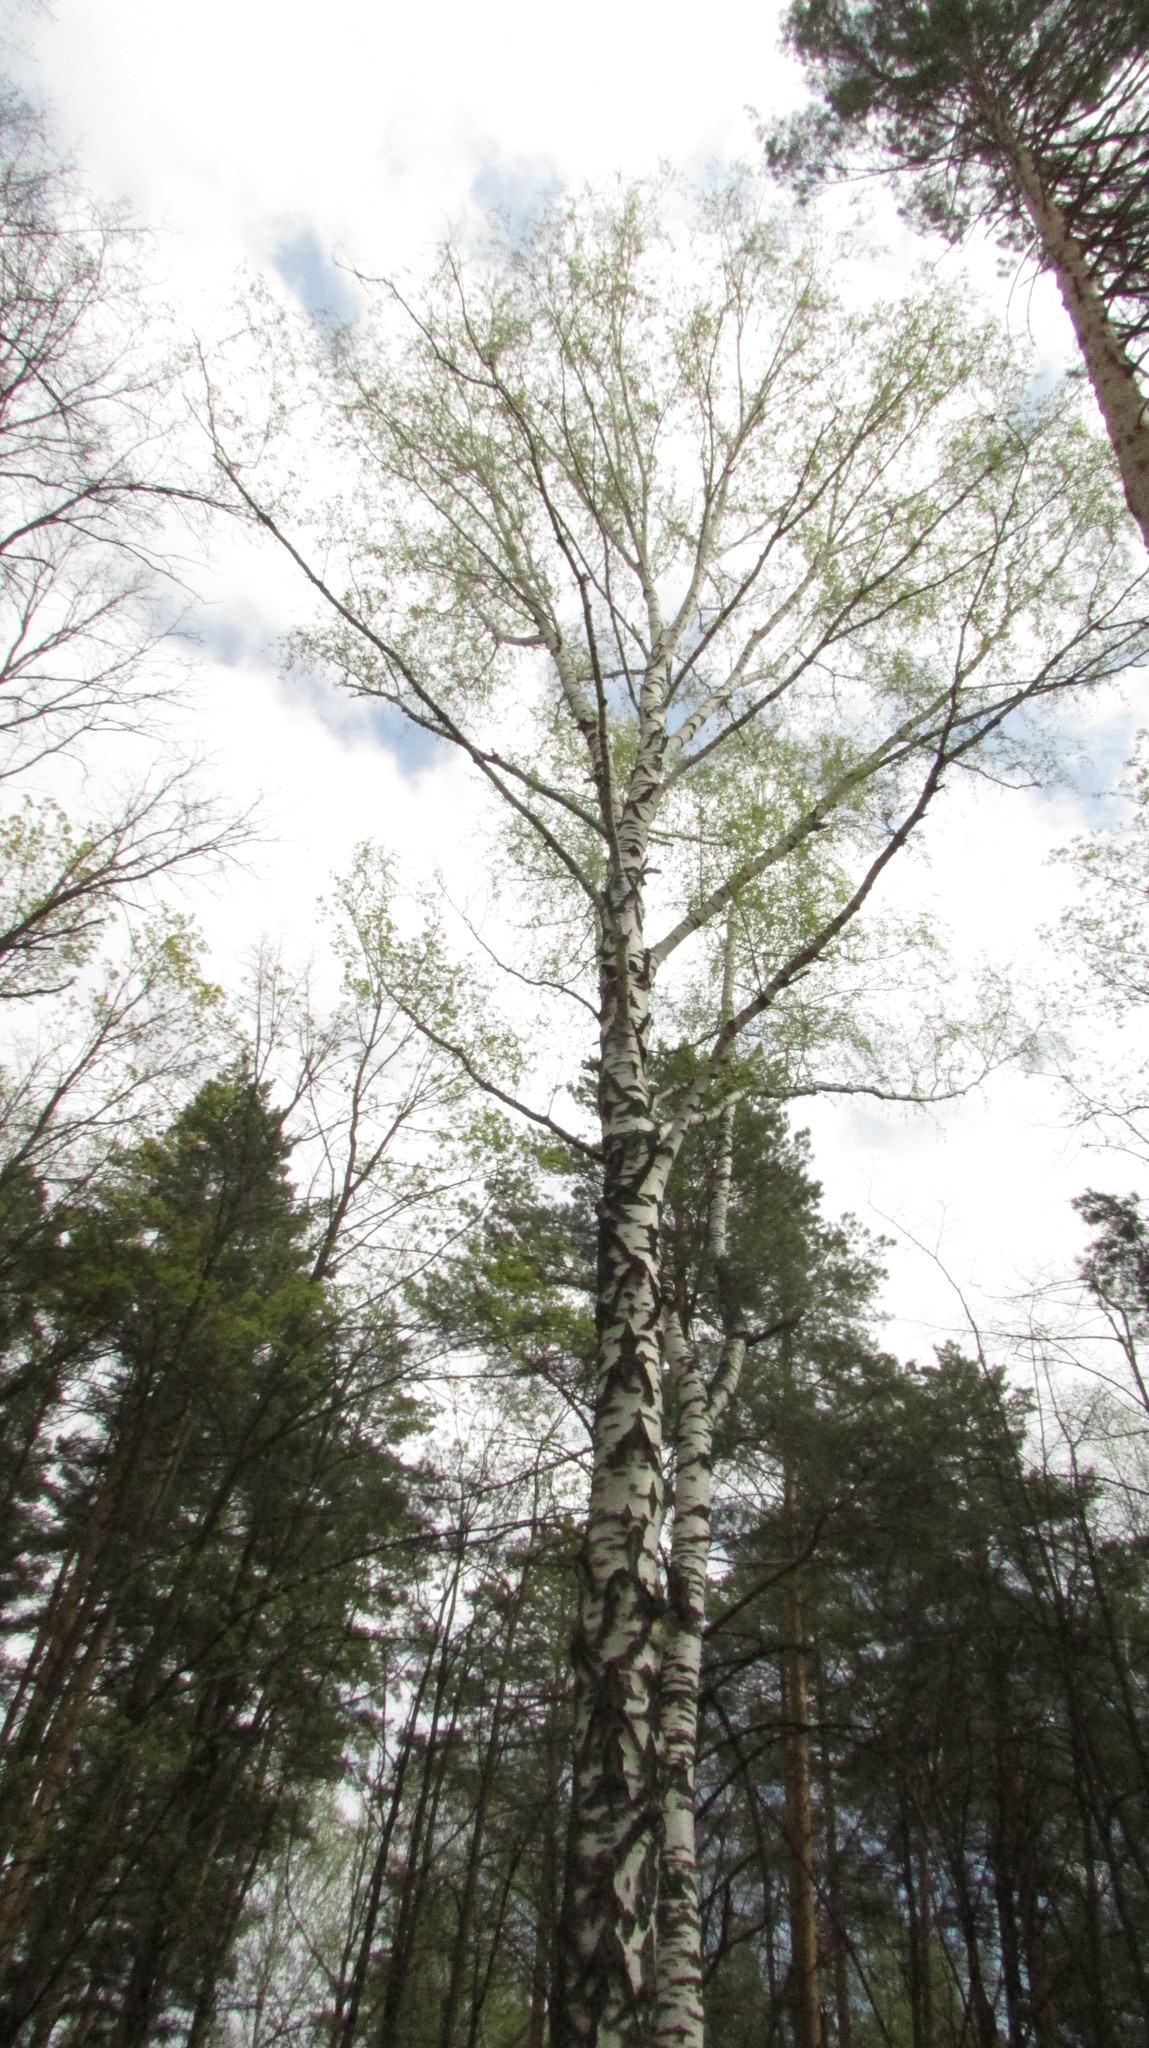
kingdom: Plantae
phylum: Tracheophyta
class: Magnoliopsida
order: Fagales
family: Betulaceae
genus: Betula
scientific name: Betula pubescens
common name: Downy birch
